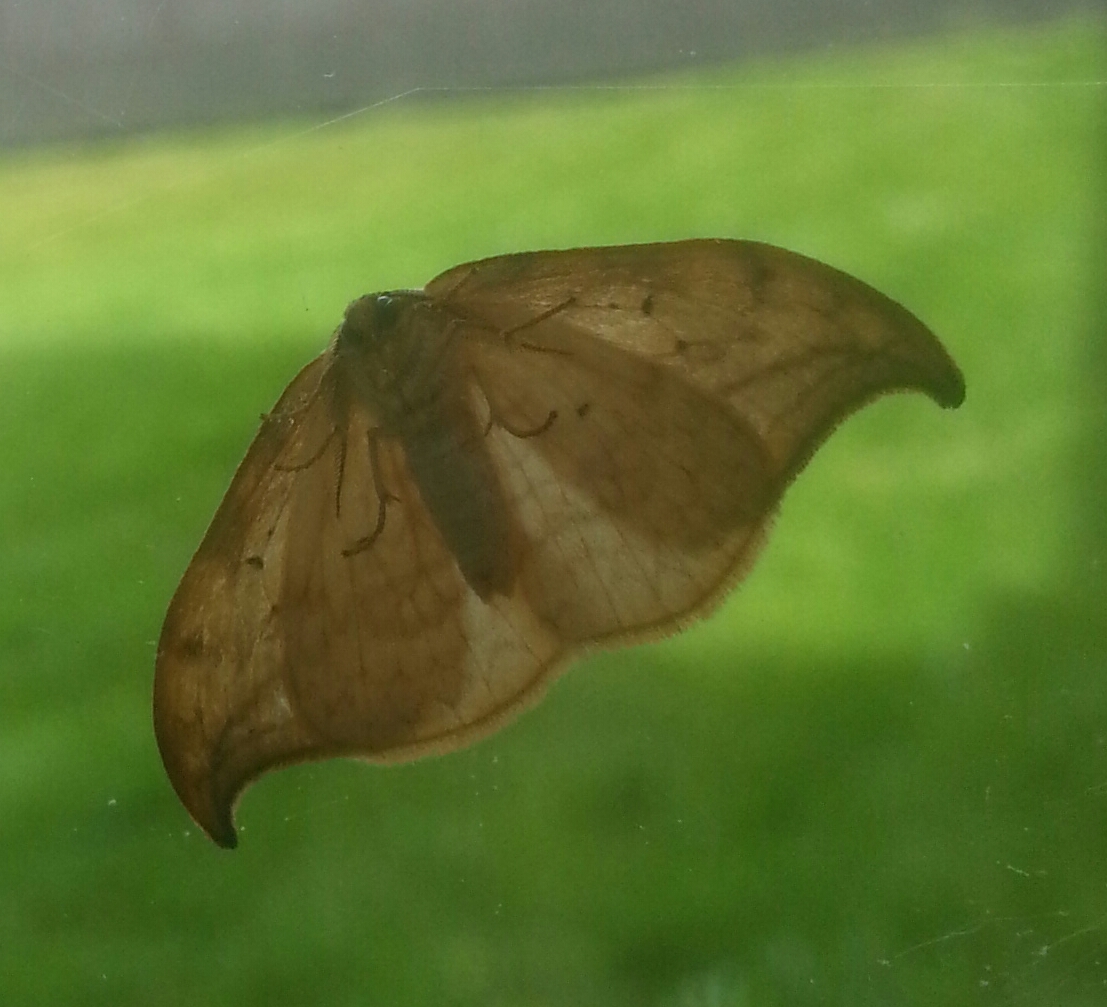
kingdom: Animalia
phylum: Arthropoda
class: Insecta
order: Lepidoptera
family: Drepanidae
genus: Drepana
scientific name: Drepana arcuata
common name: Arched hooktip moth
